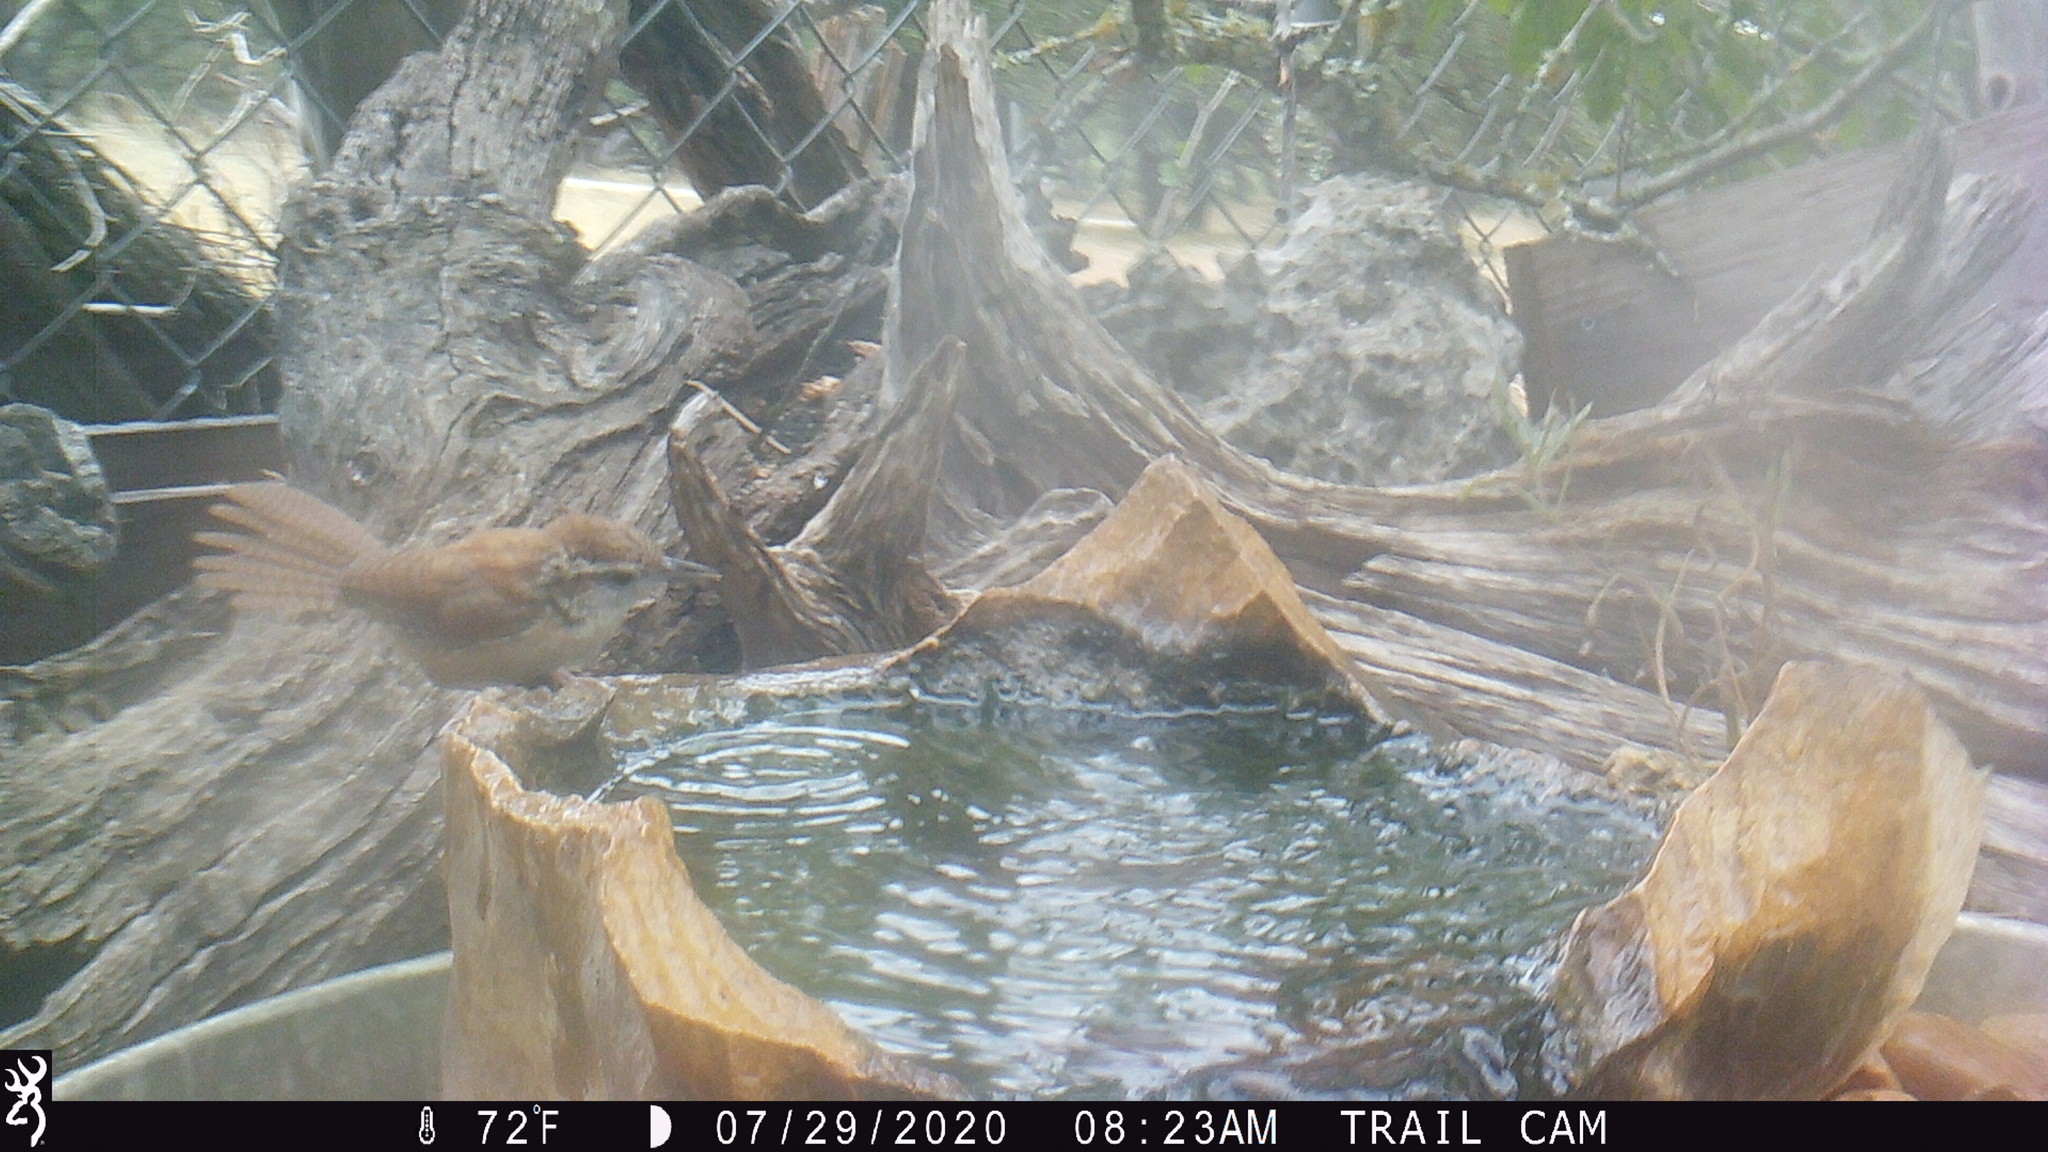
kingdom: Animalia
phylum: Chordata
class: Aves
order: Passeriformes
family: Troglodytidae
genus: Thryothorus
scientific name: Thryothorus ludovicianus
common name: Carolina wren
